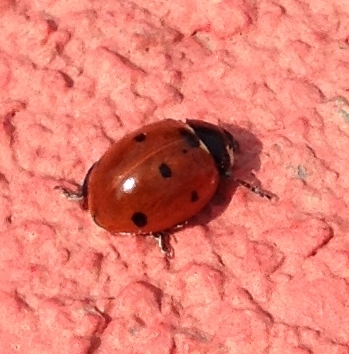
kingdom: Animalia
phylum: Arthropoda
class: Insecta
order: Coleoptera
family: Coccinellidae
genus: Coccinella
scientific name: Coccinella septempunctata
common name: Sevenspotted lady beetle
